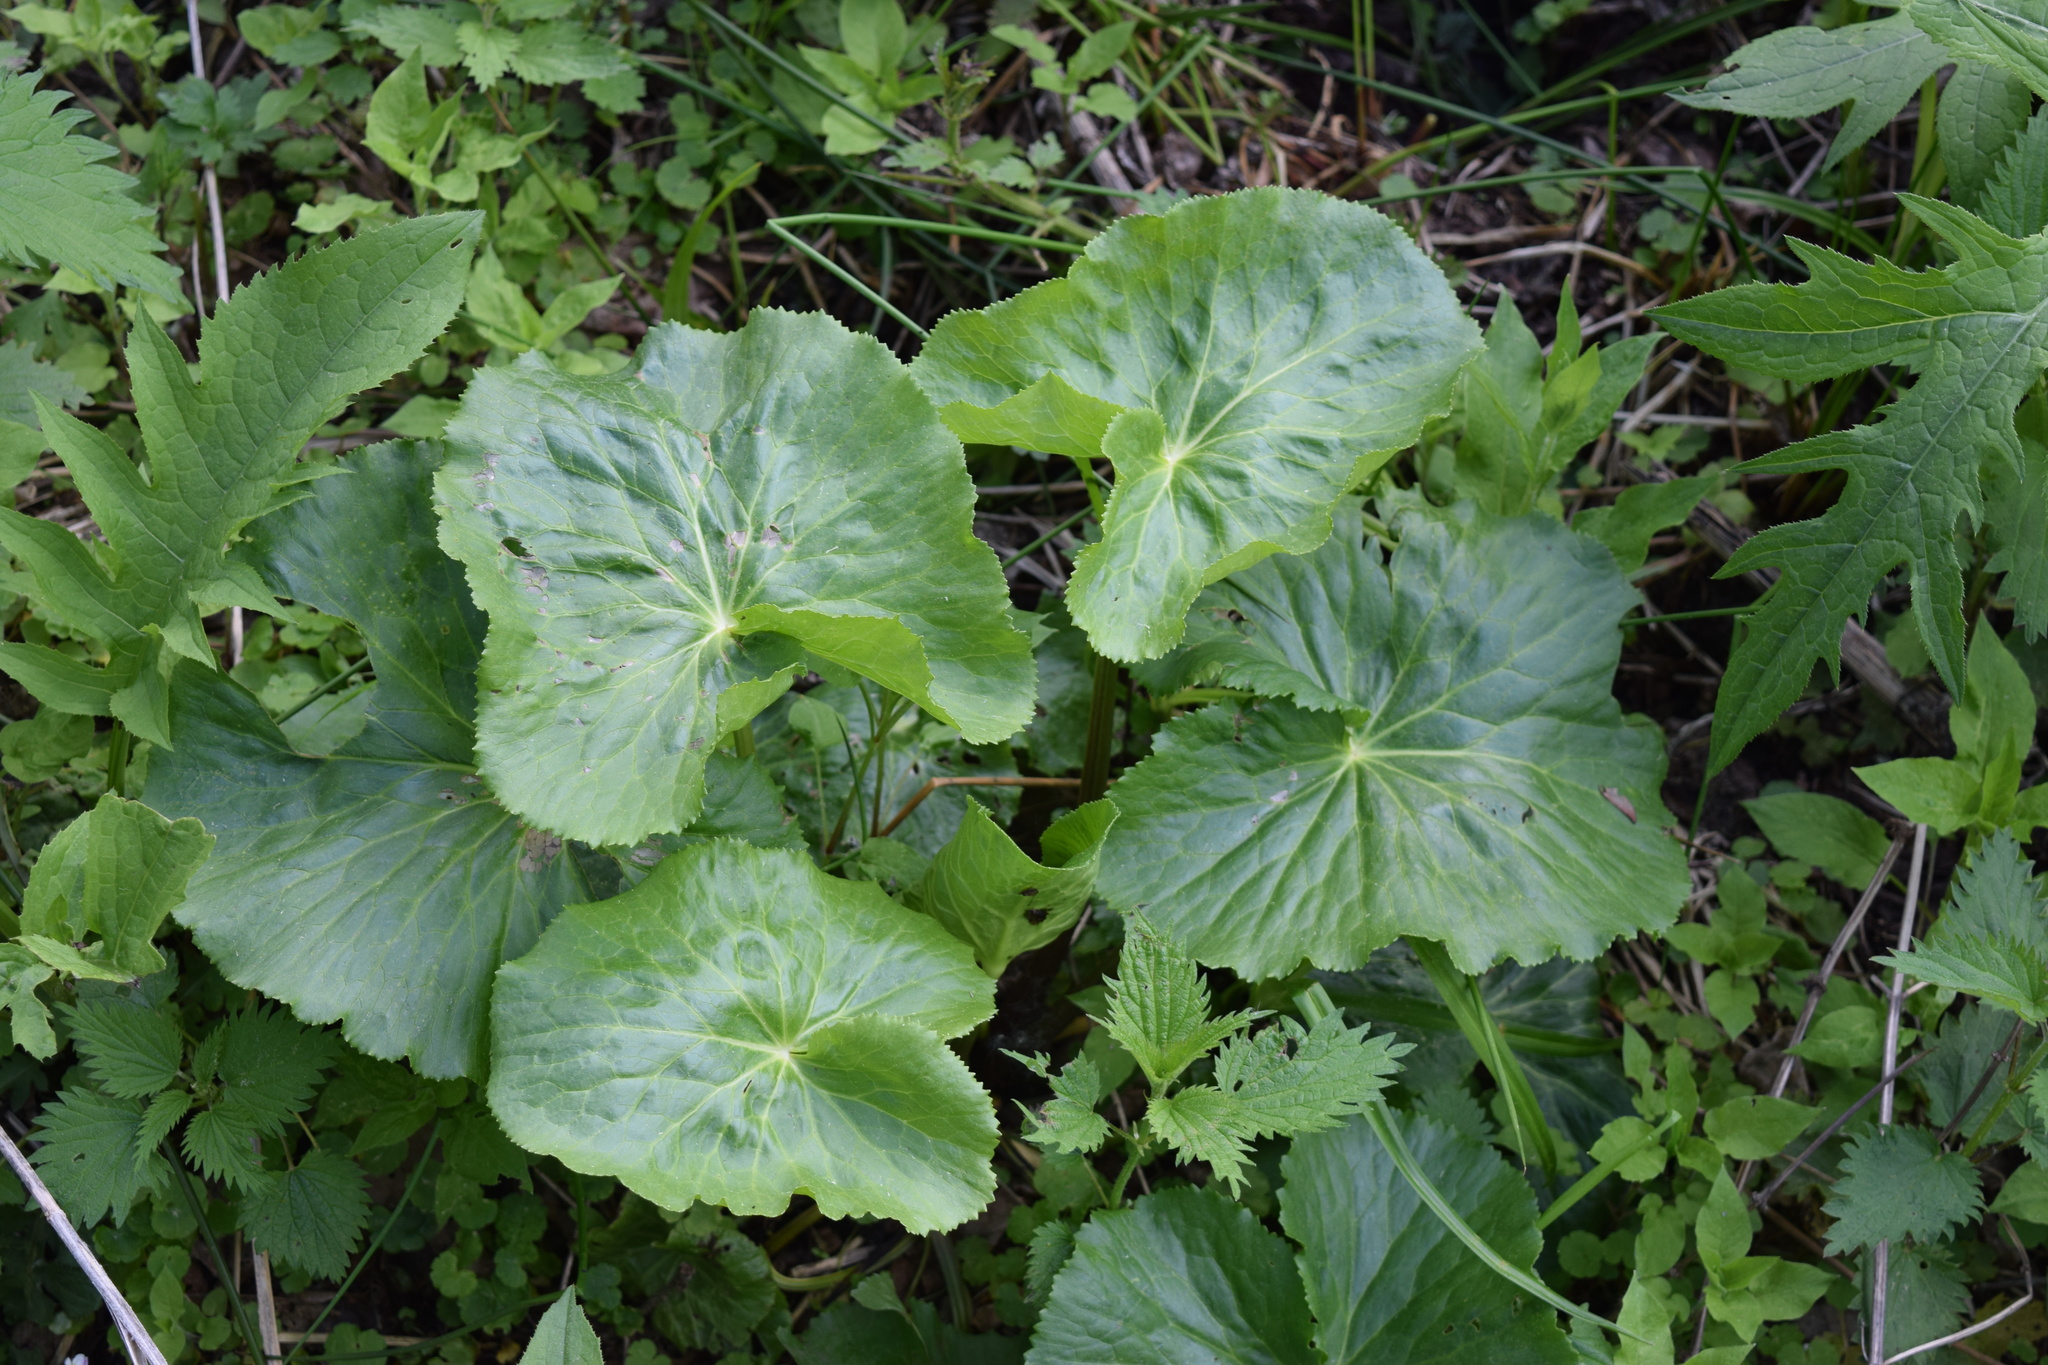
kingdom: Plantae
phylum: Tracheophyta
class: Magnoliopsida
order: Ranunculales
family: Ranunculaceae
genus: Caltha
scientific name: Caltha palustris
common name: Marsh marigold
